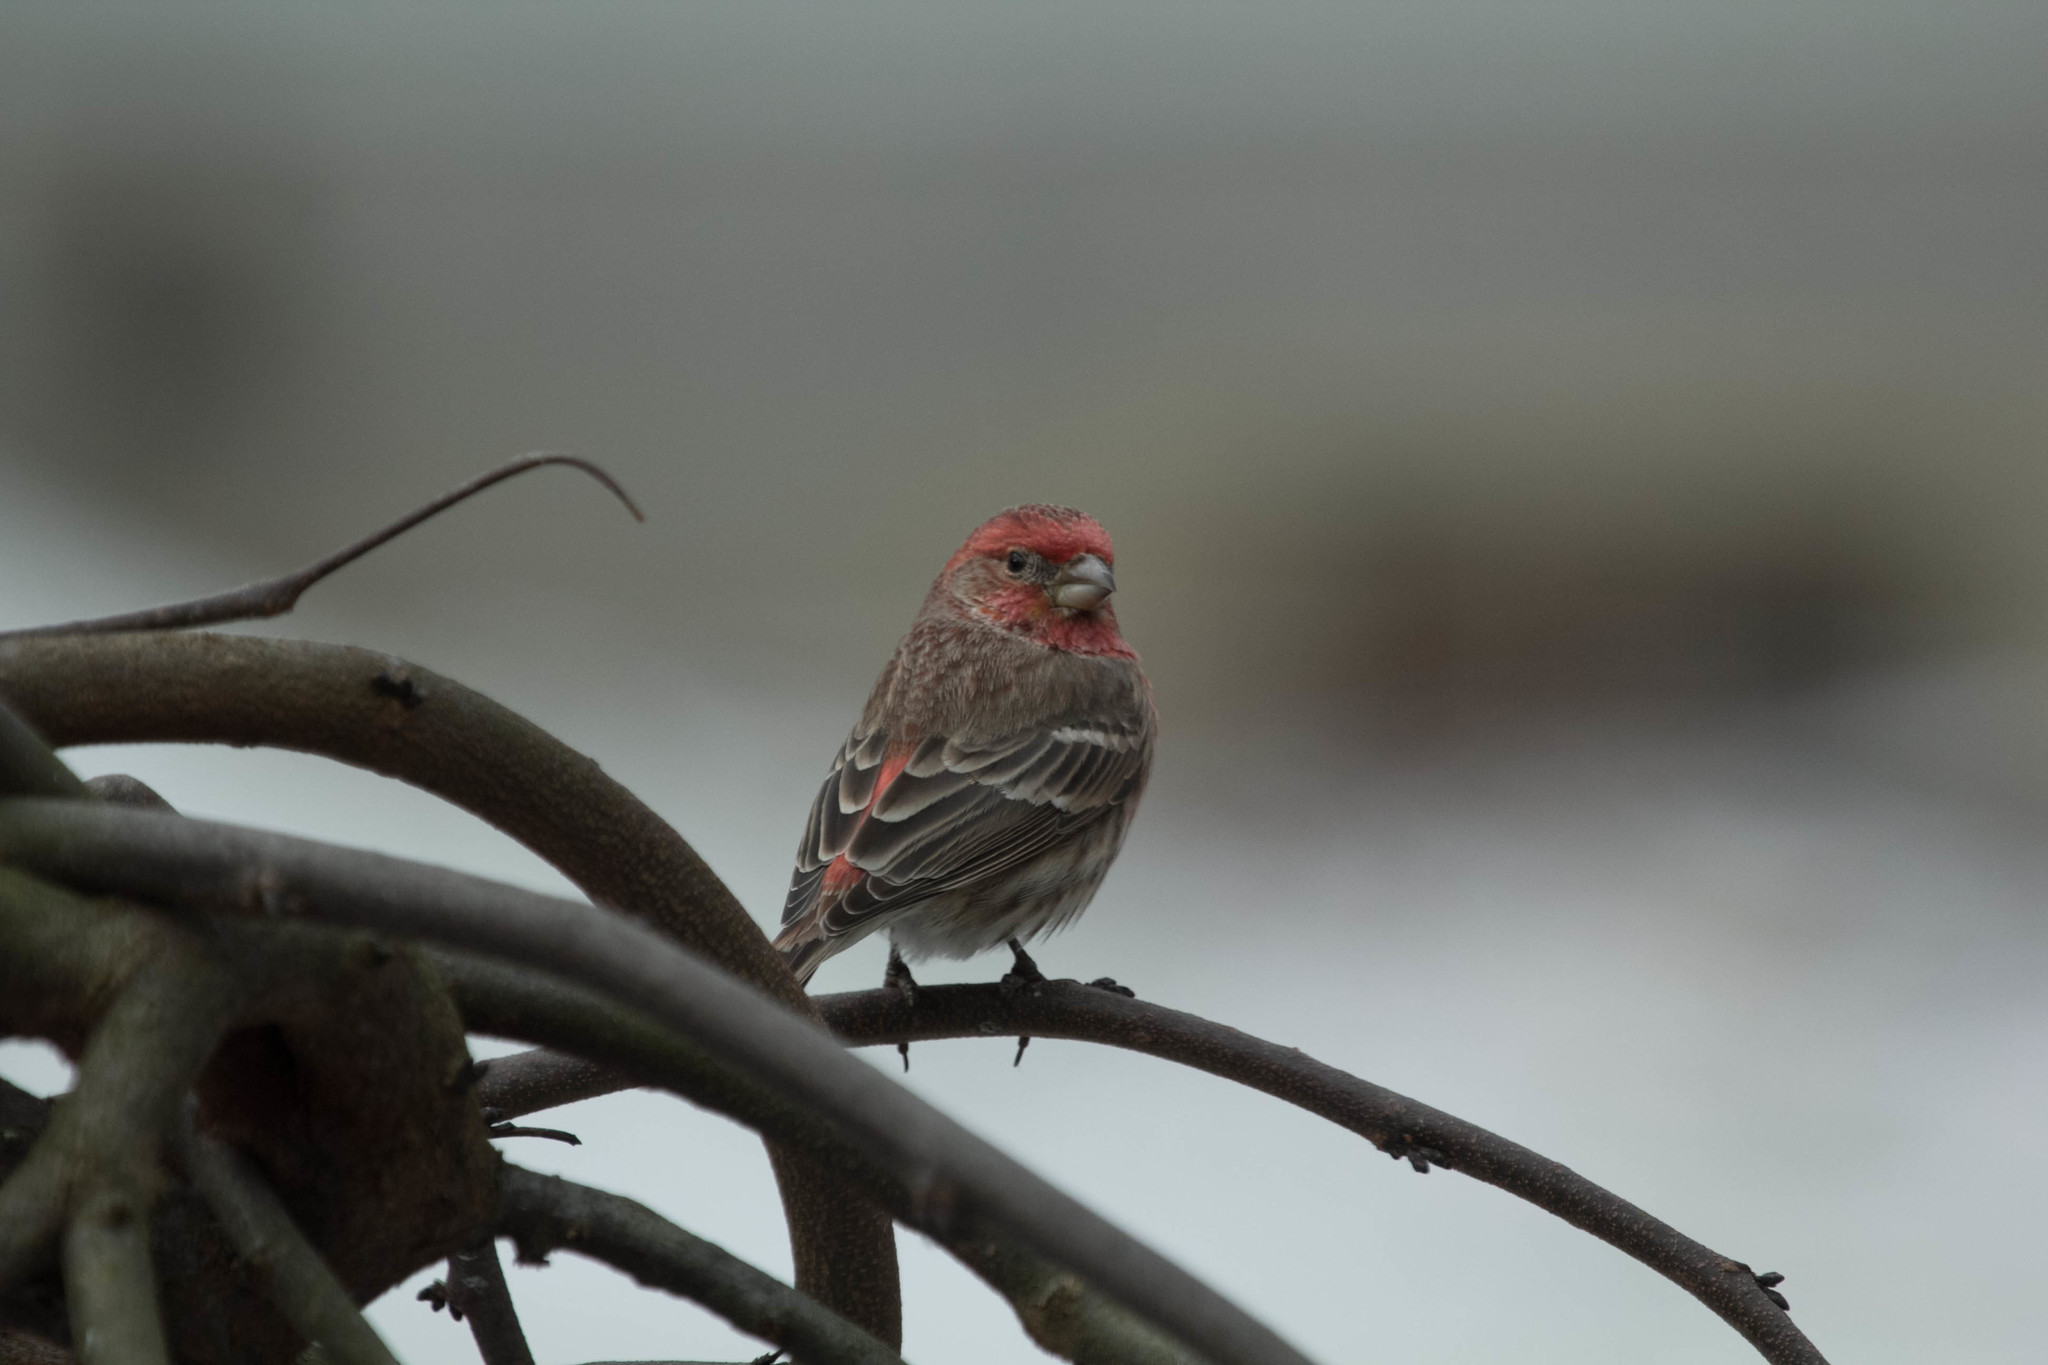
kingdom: Animalia
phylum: Chordata
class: Aves
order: Passeriformes
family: Fringillidae
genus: Haemorhous
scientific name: Haemorhous mexicanus
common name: House finch
